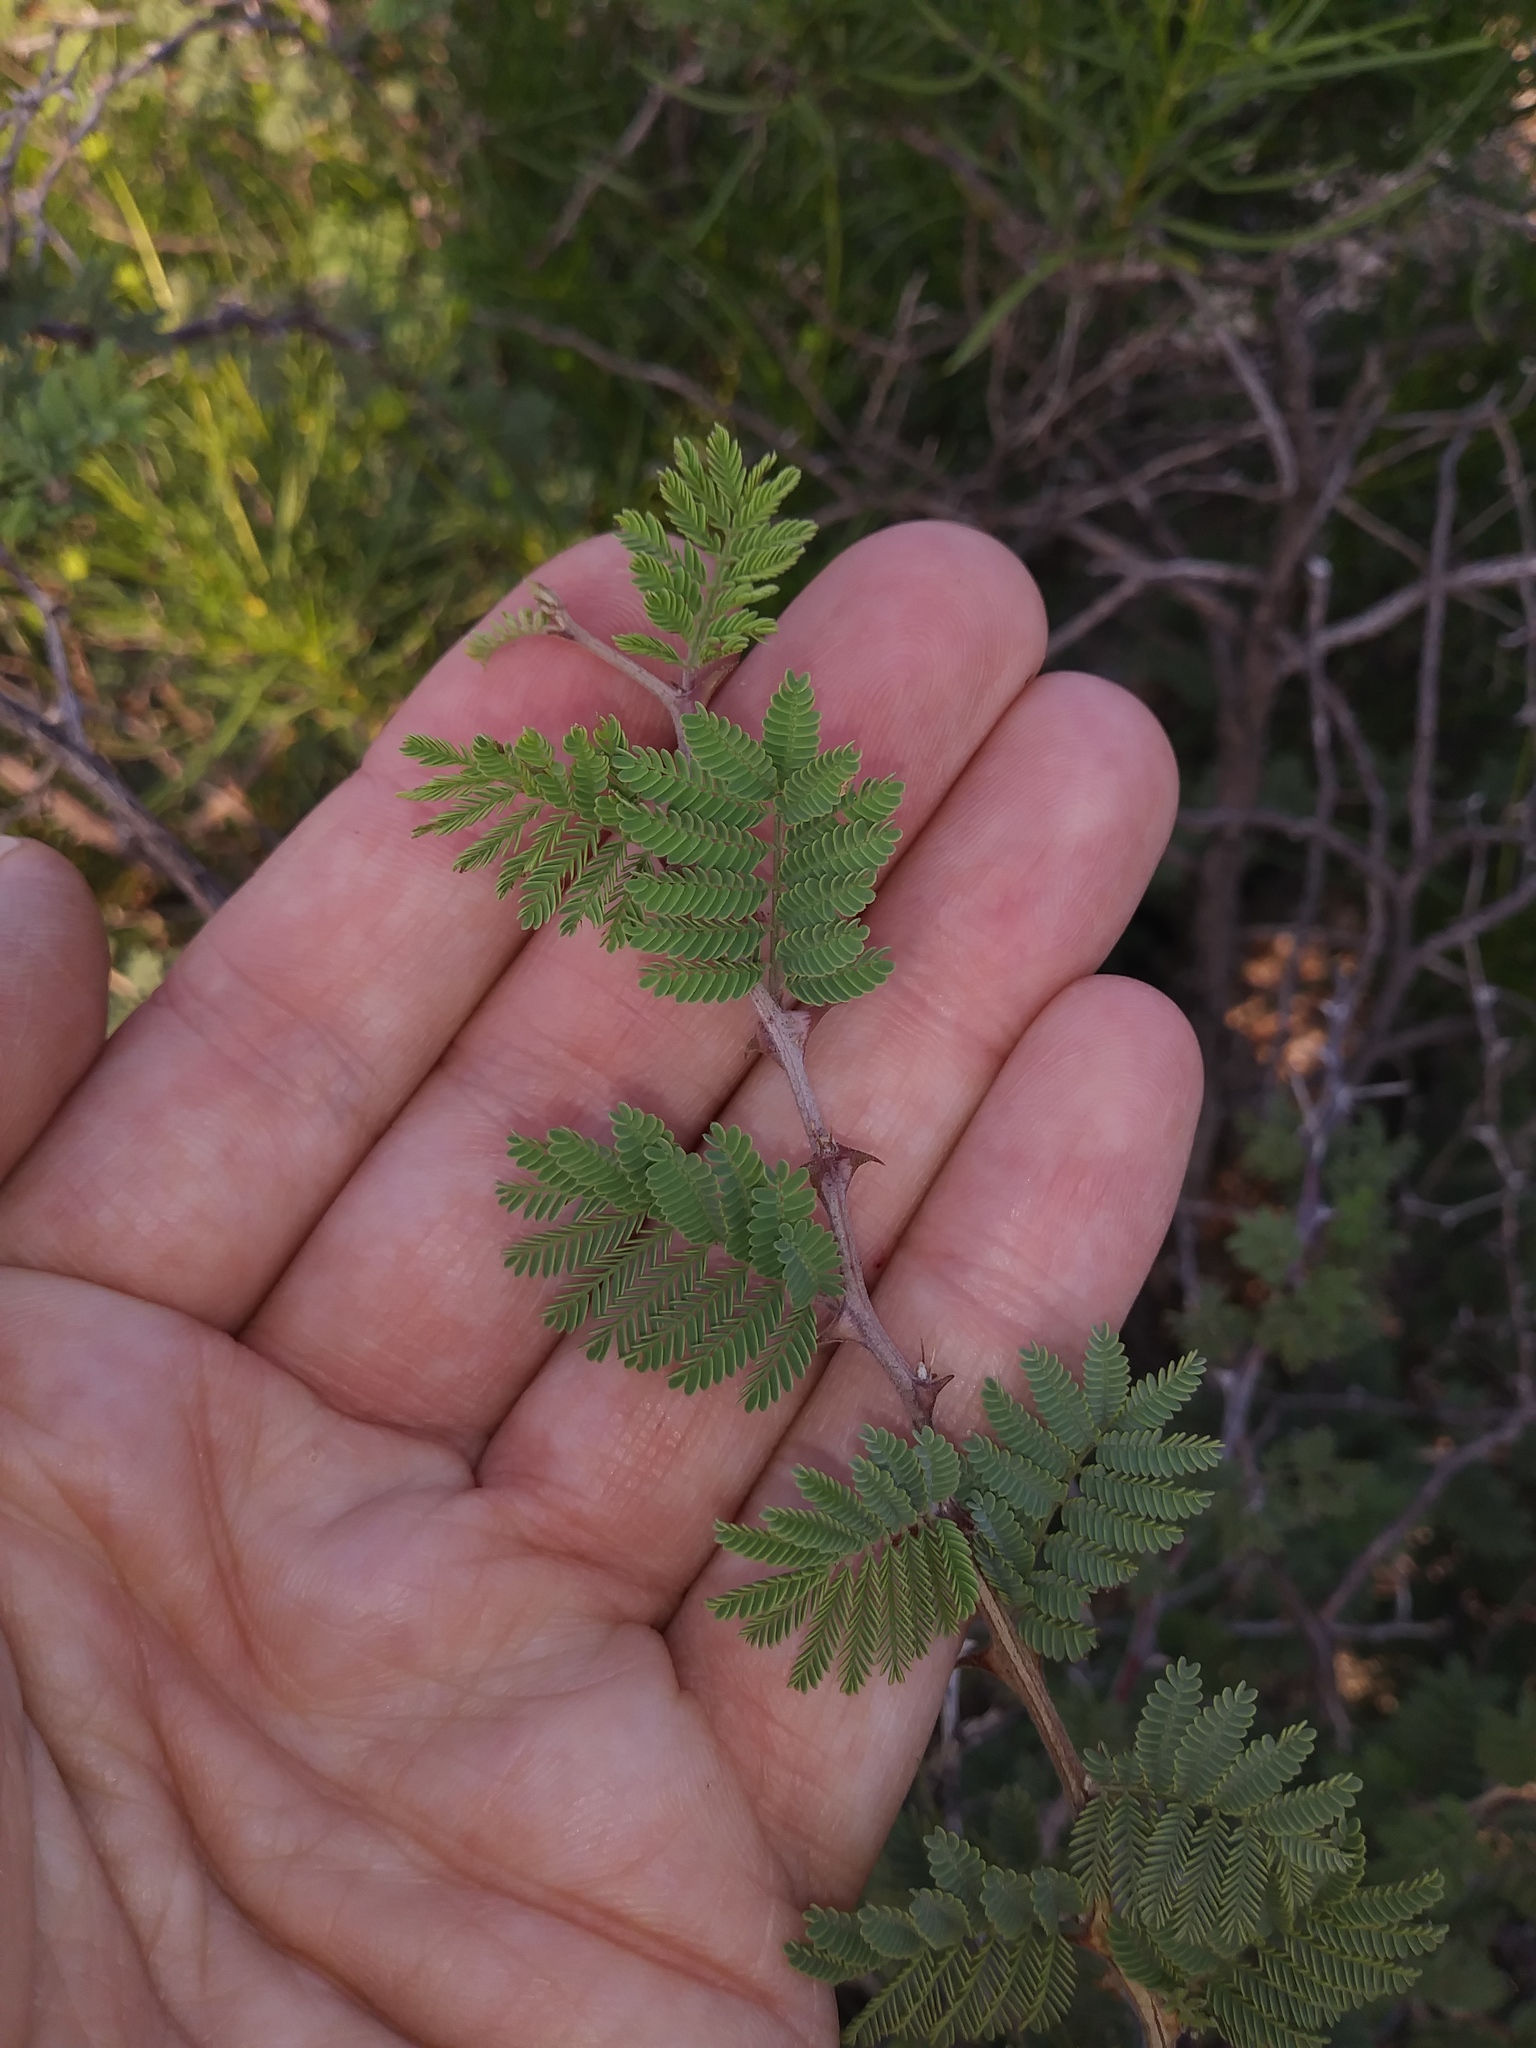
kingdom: Plantae
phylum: Tracheophyta
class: Magnoliopsida
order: Fabales
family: Fabaceae
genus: Mimosa
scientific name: Mimosa aculeaticarpa
